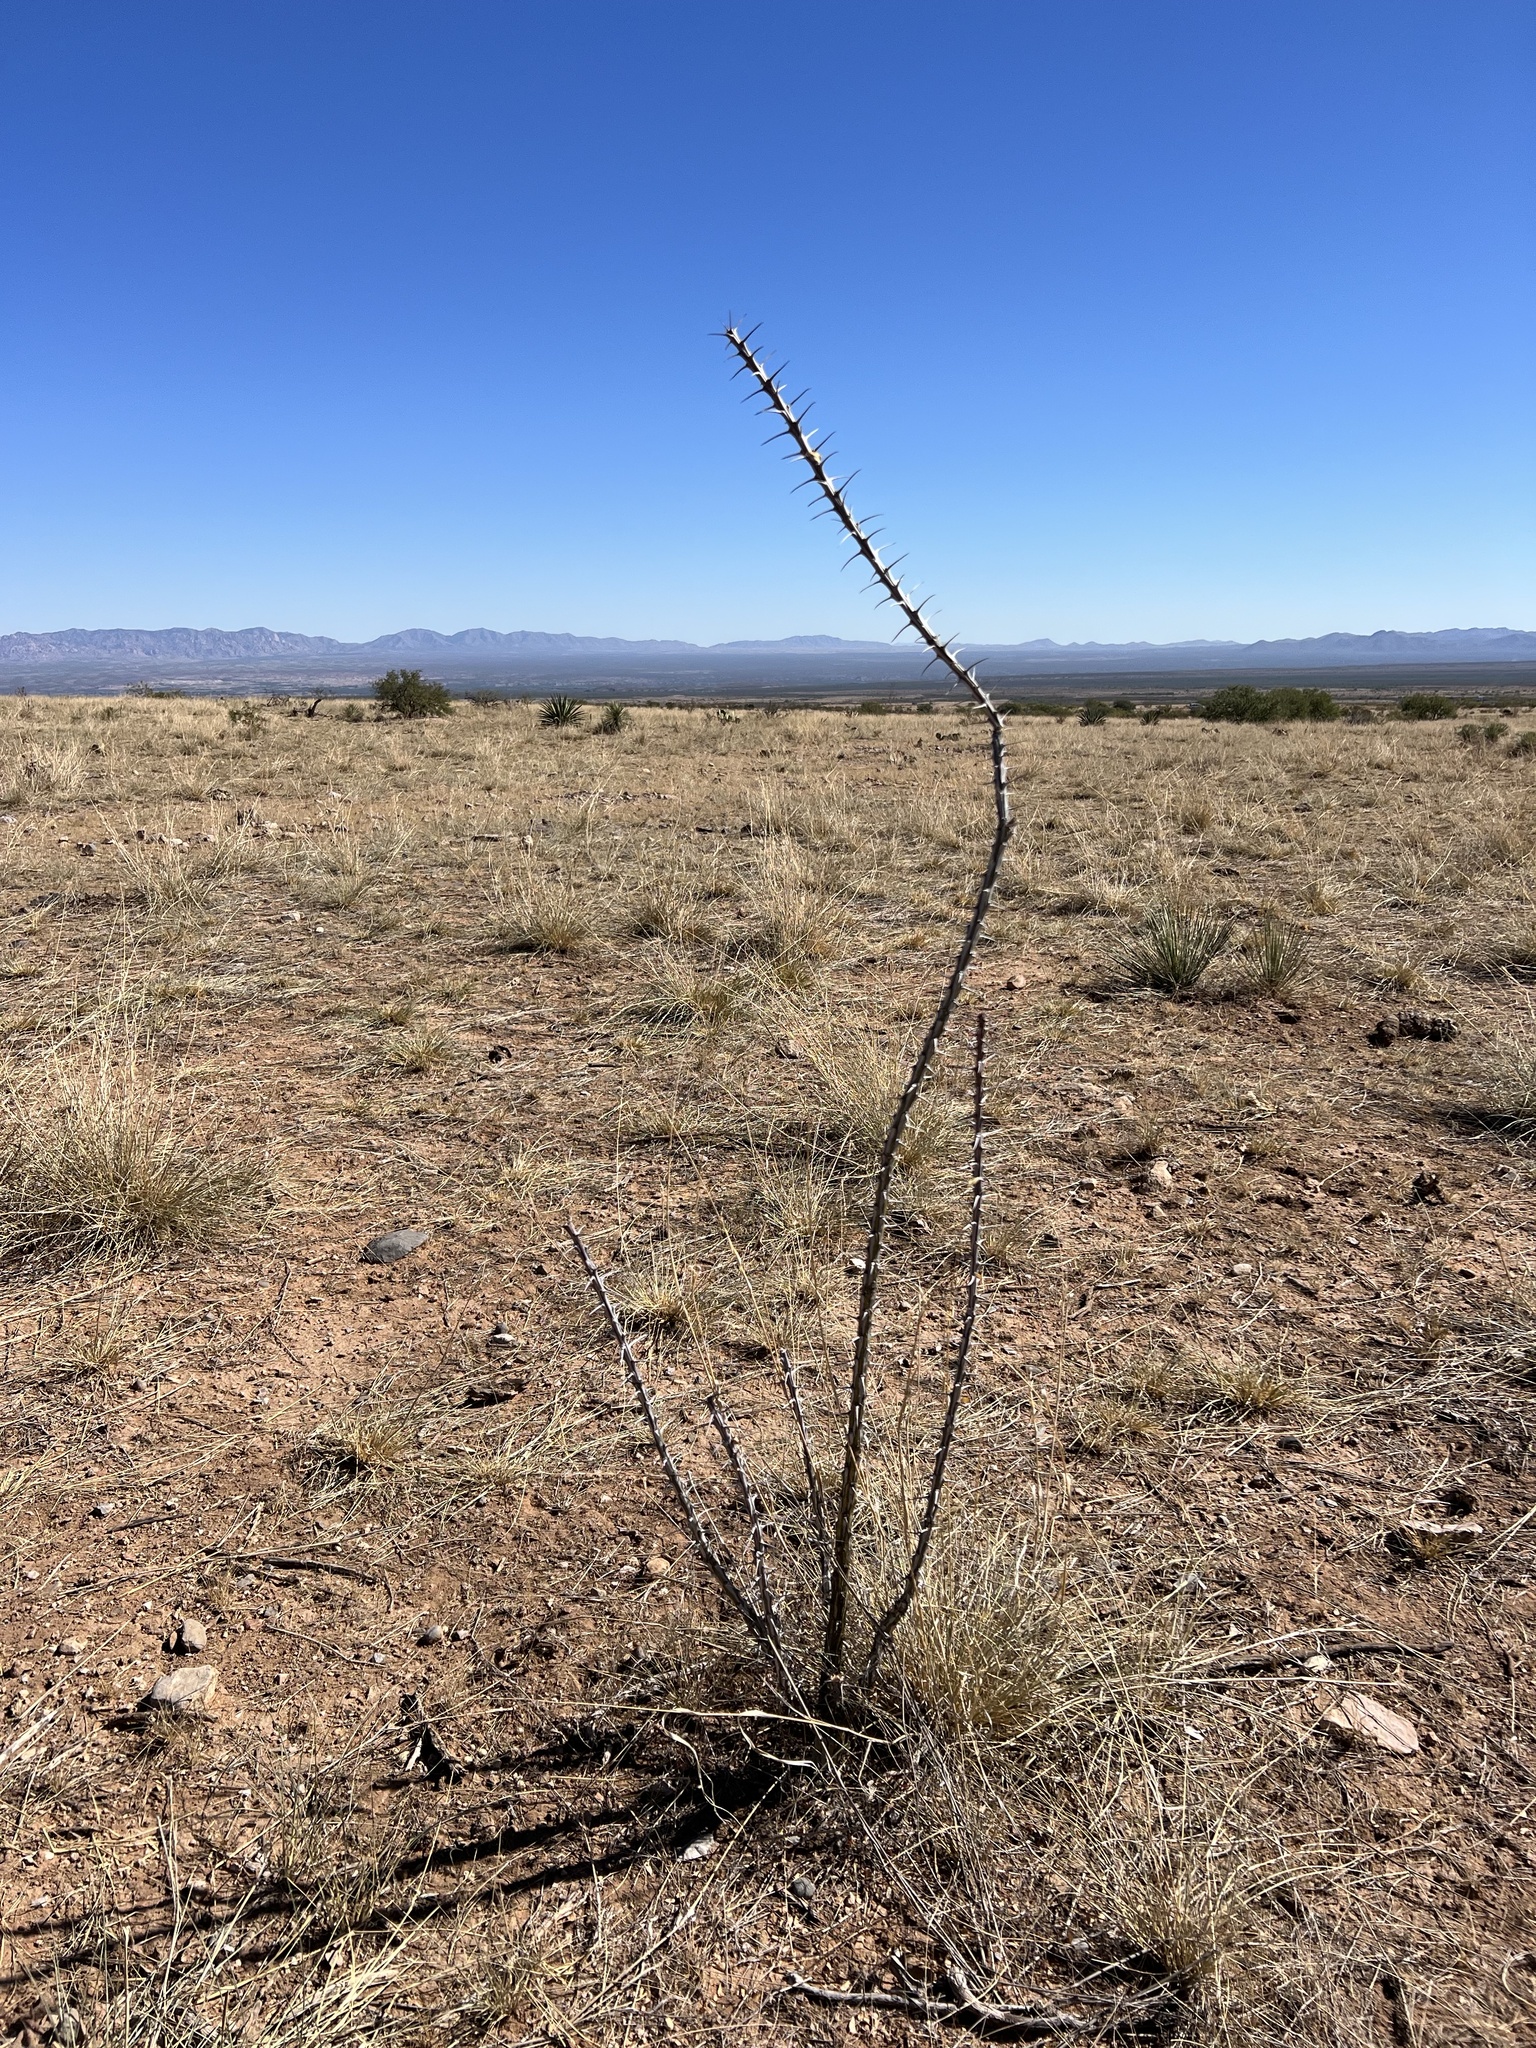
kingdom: Plantae
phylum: Tracheophyta
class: Magnoliopsida
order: Ericales
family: Fouquieriaceae
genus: Fouquieria
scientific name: Fouquieria splendens
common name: Vine-cactus
